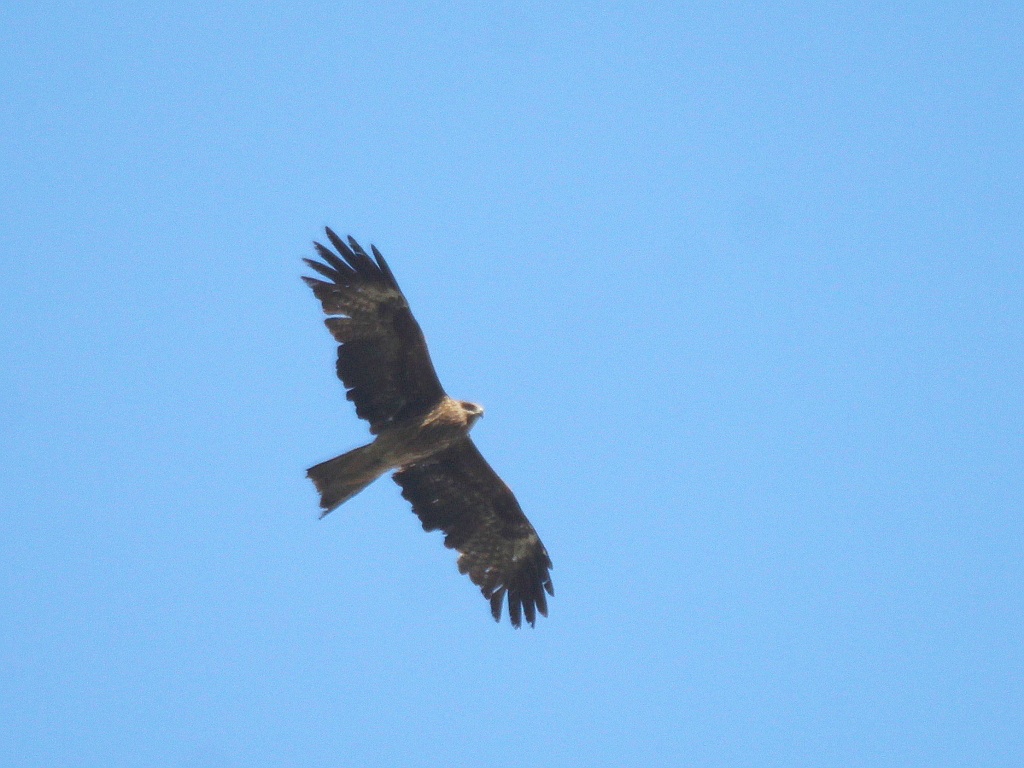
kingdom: Animalia
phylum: Chordata
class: Aves
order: Accipitriformes
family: Accipitridae
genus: Milvus
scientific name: Milvus migrans
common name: Black kite
